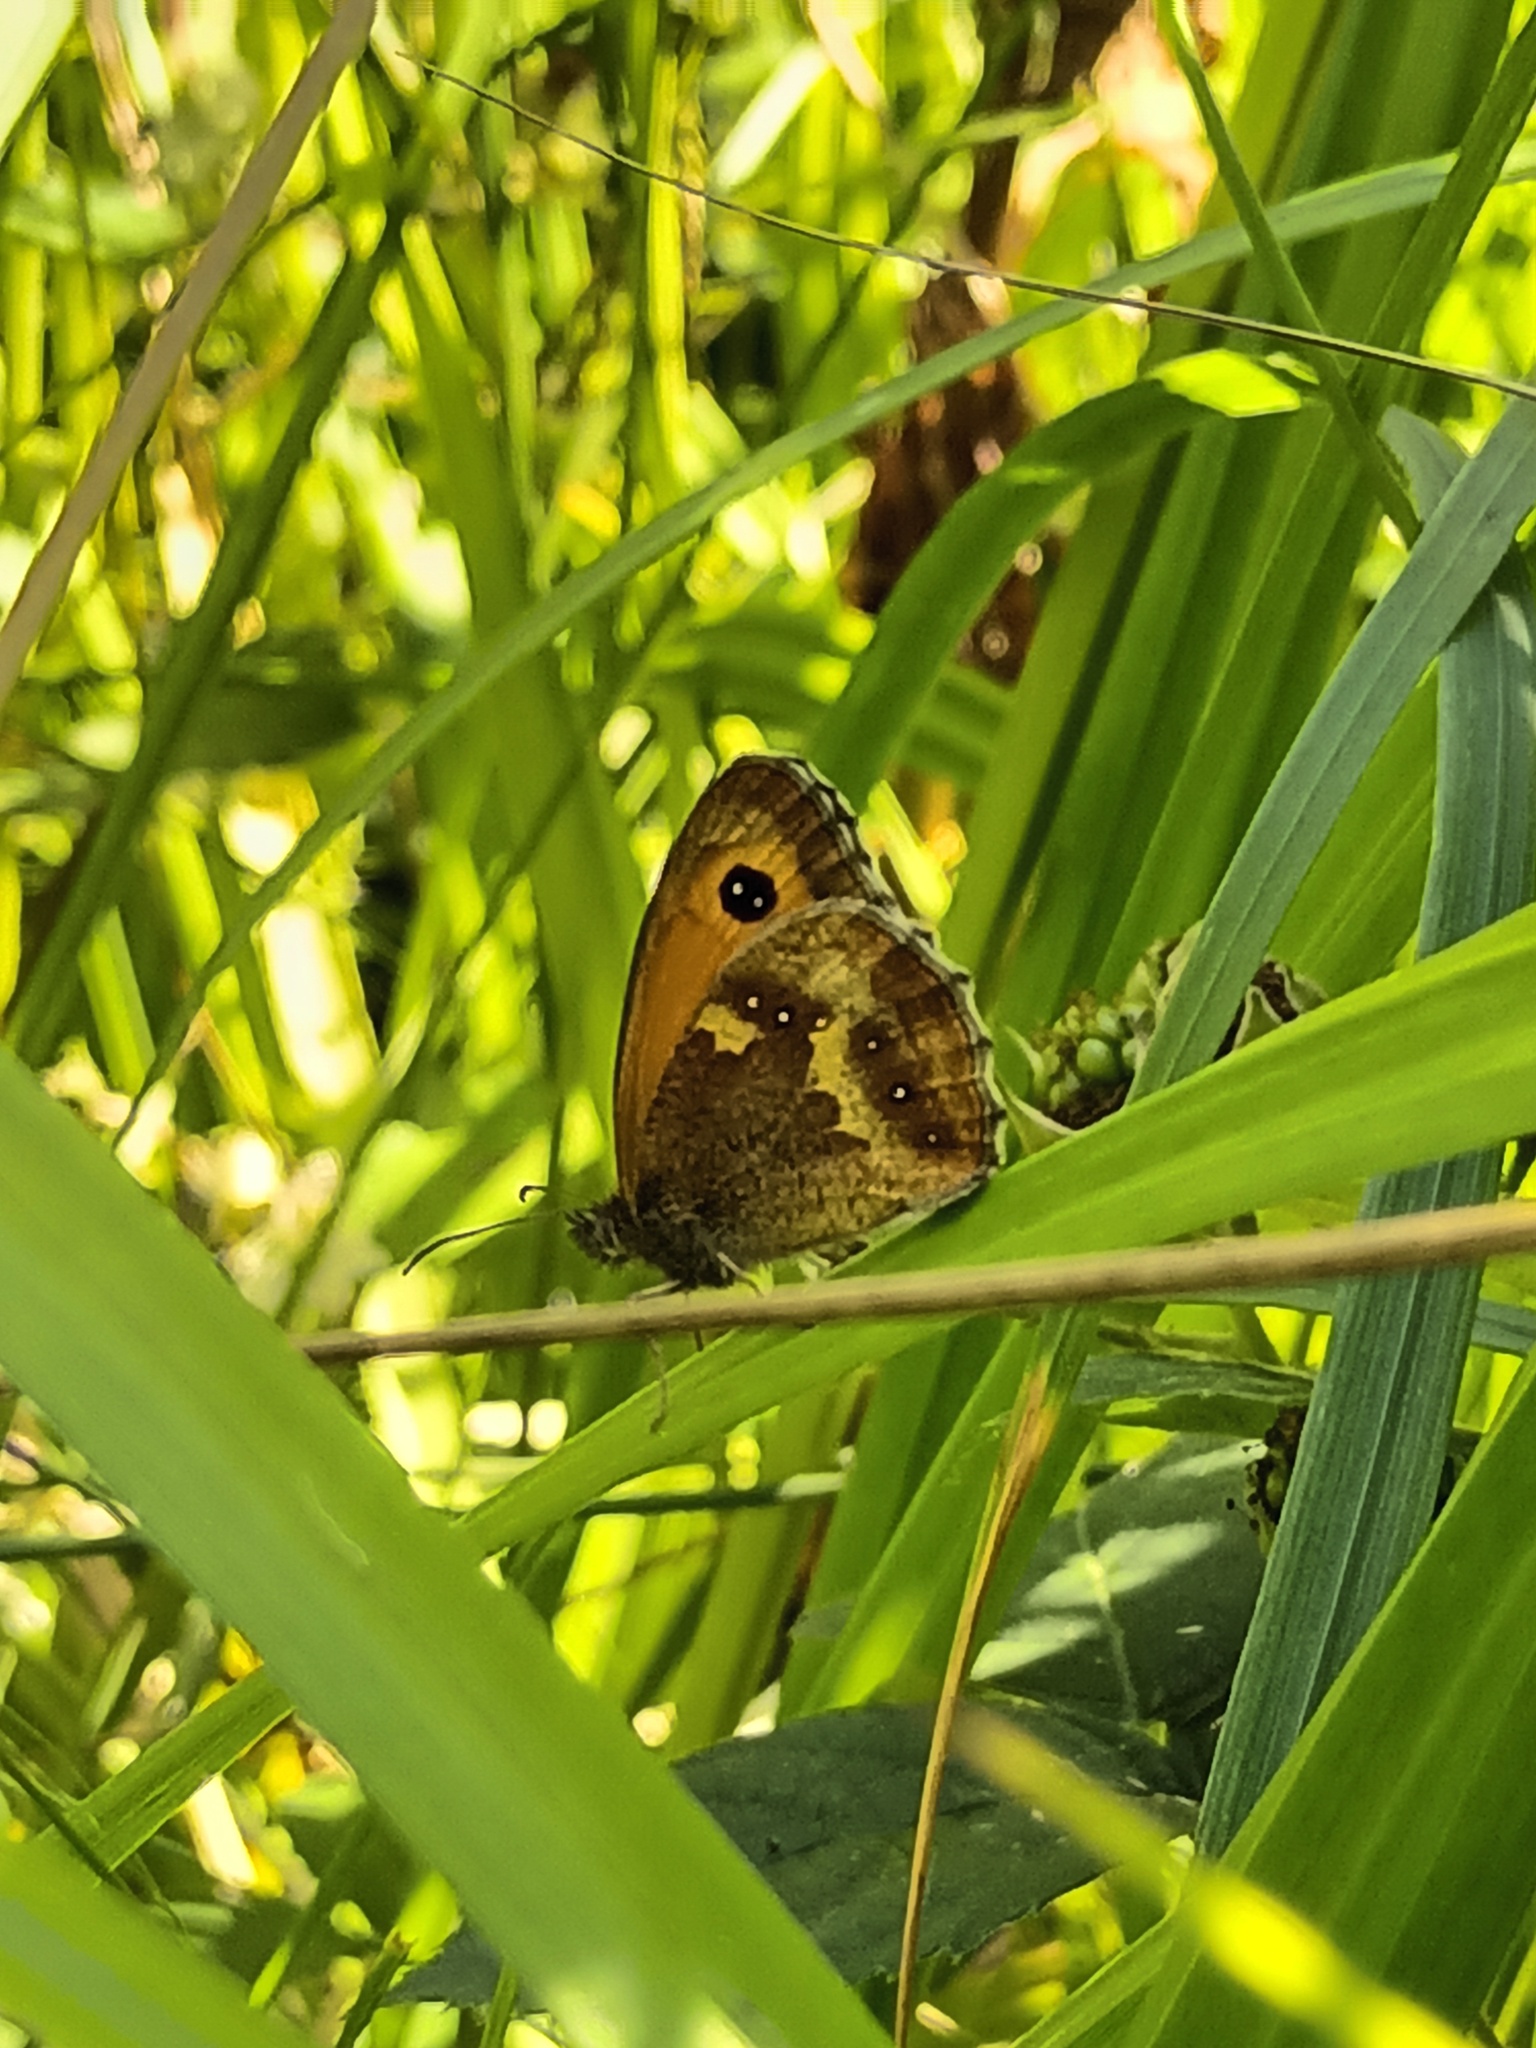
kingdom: Animalia
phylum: Arthropoda
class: Insecta
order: Lepidoptera
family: Nymphalidae
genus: Pyronia
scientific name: Pyronia tithonus
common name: Gatekeeper
